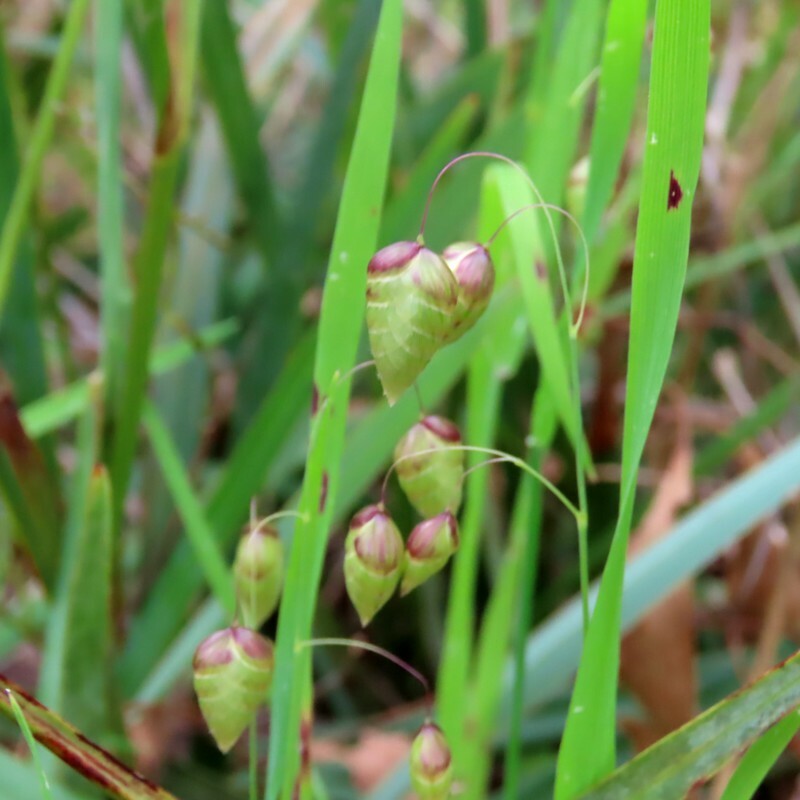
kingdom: Plantae
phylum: Tracheophyta
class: Liliopsida
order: Poales
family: Poaceae
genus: Briza
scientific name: Briza maxima
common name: Big quakinggrass
